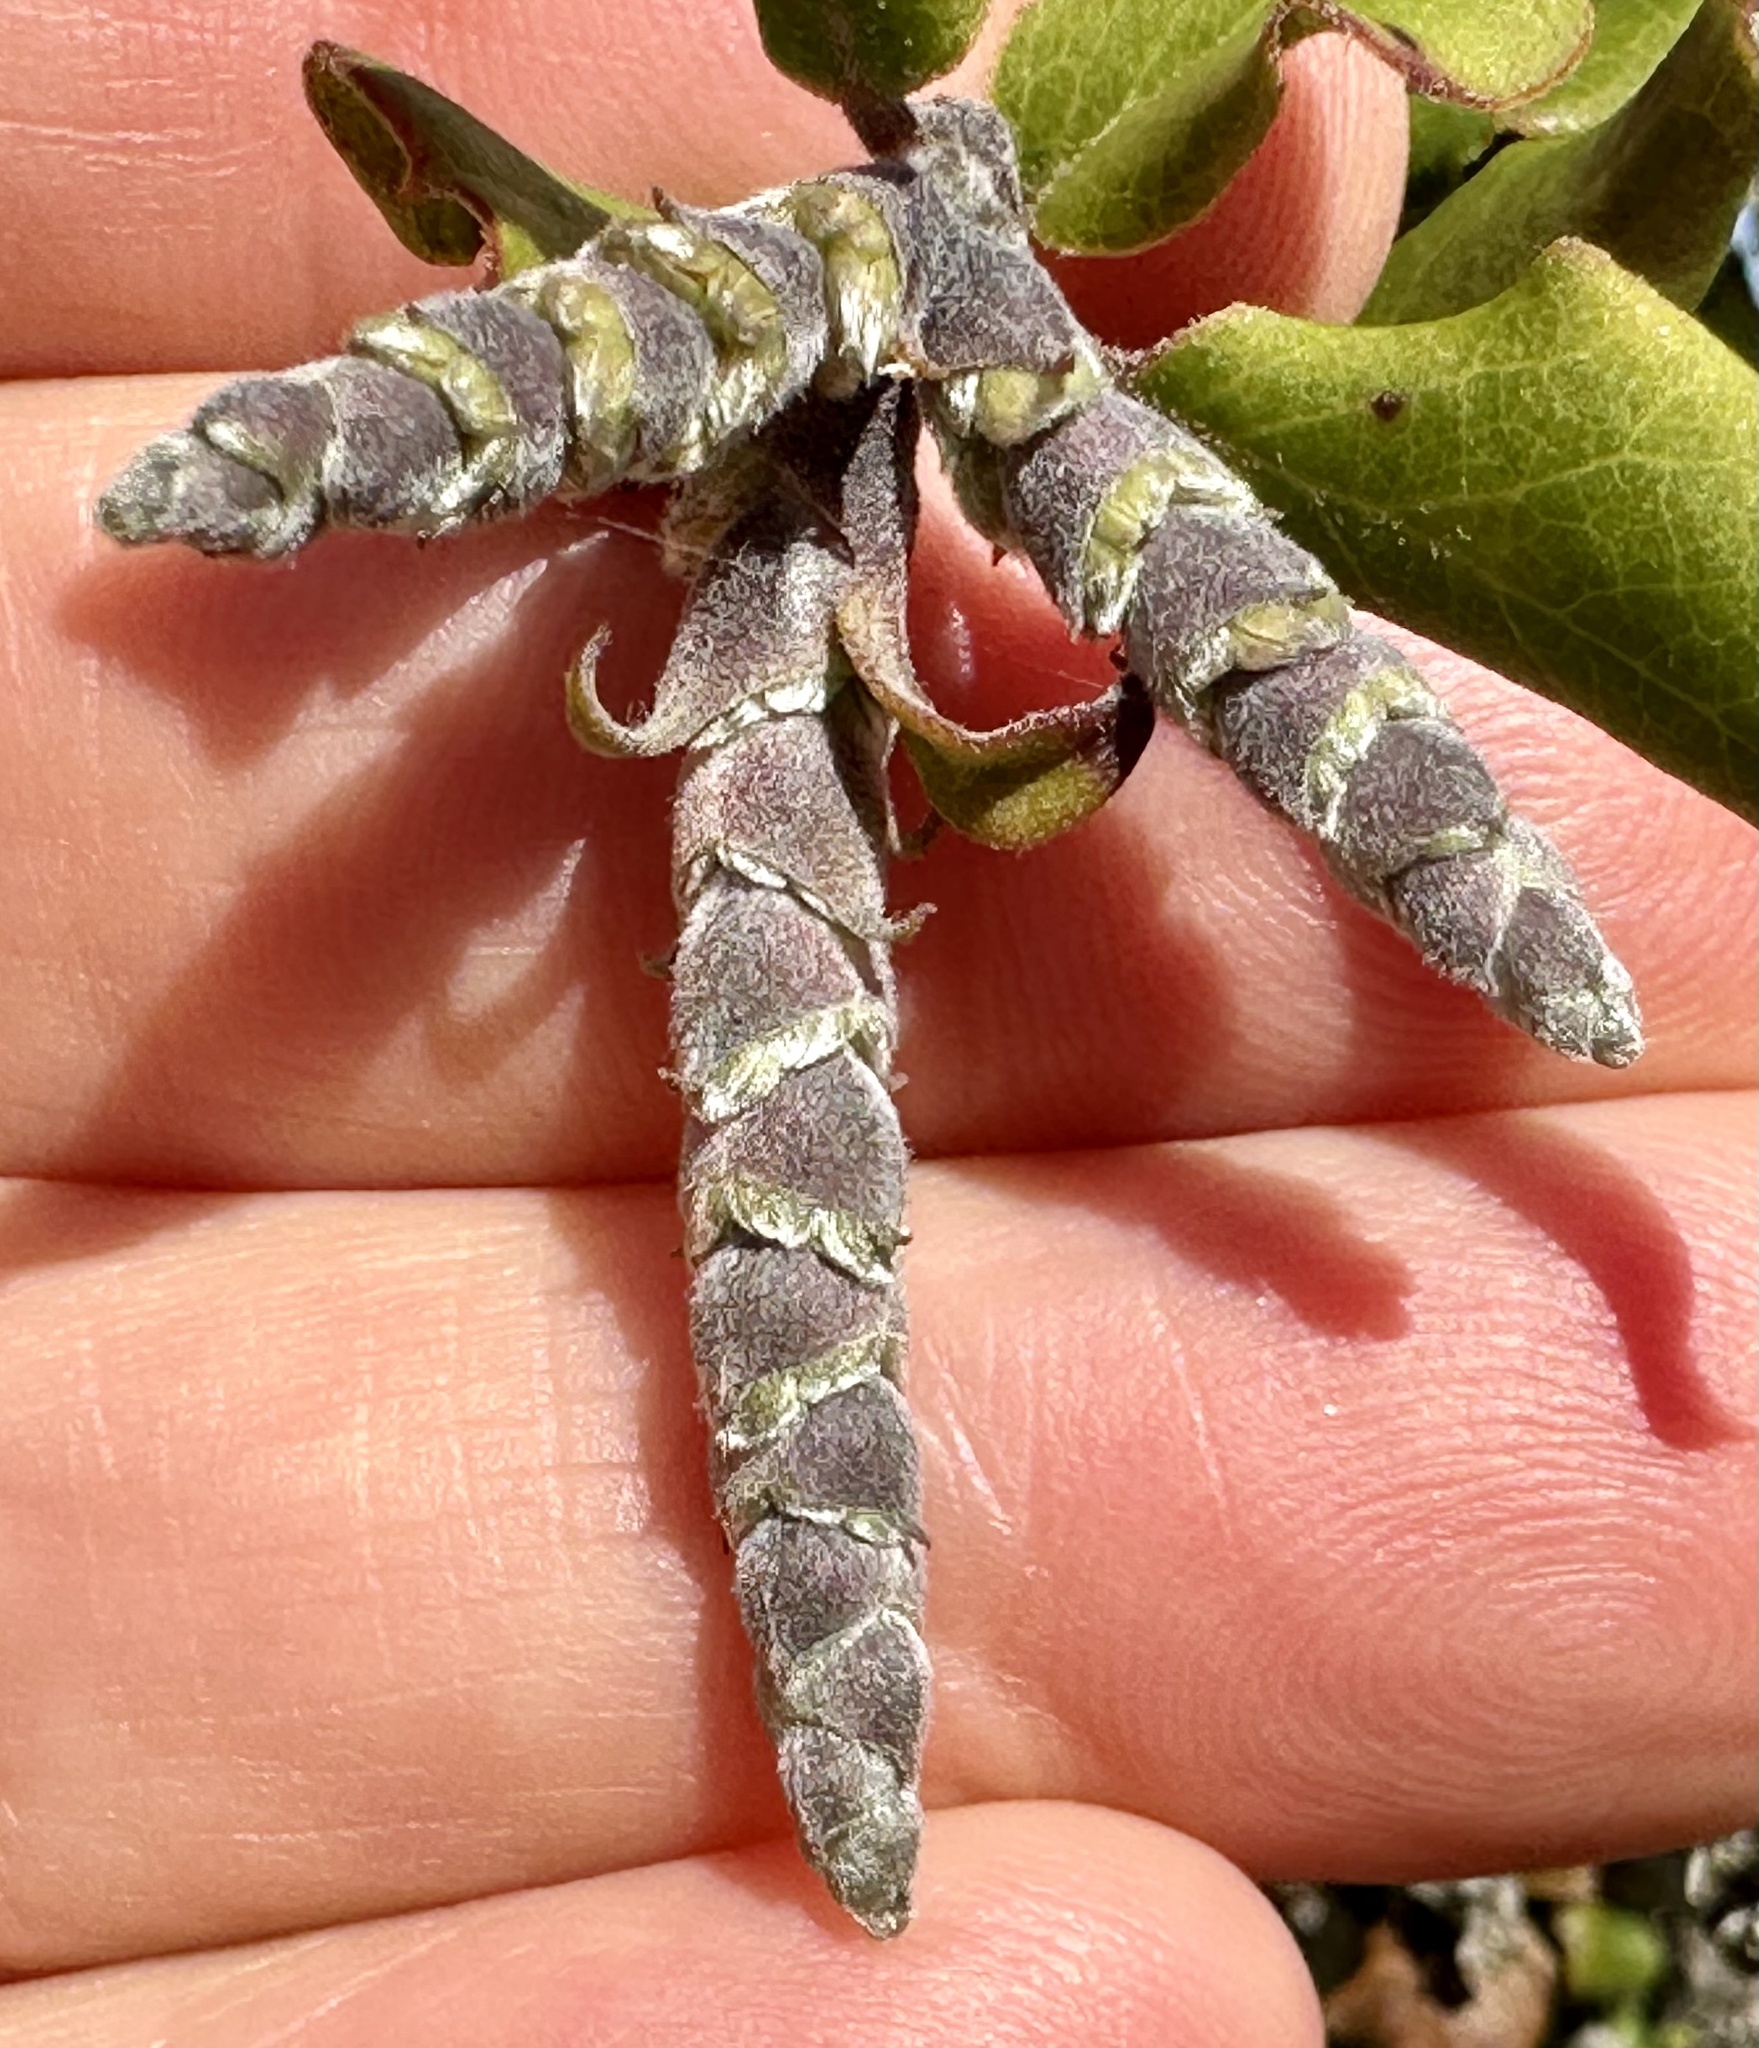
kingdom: Plantae
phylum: Tracheophyta
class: Magnoliopsida
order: Garryales
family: Garryaceae
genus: Garrya
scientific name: Garrya elliptica
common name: Silk-tassel
